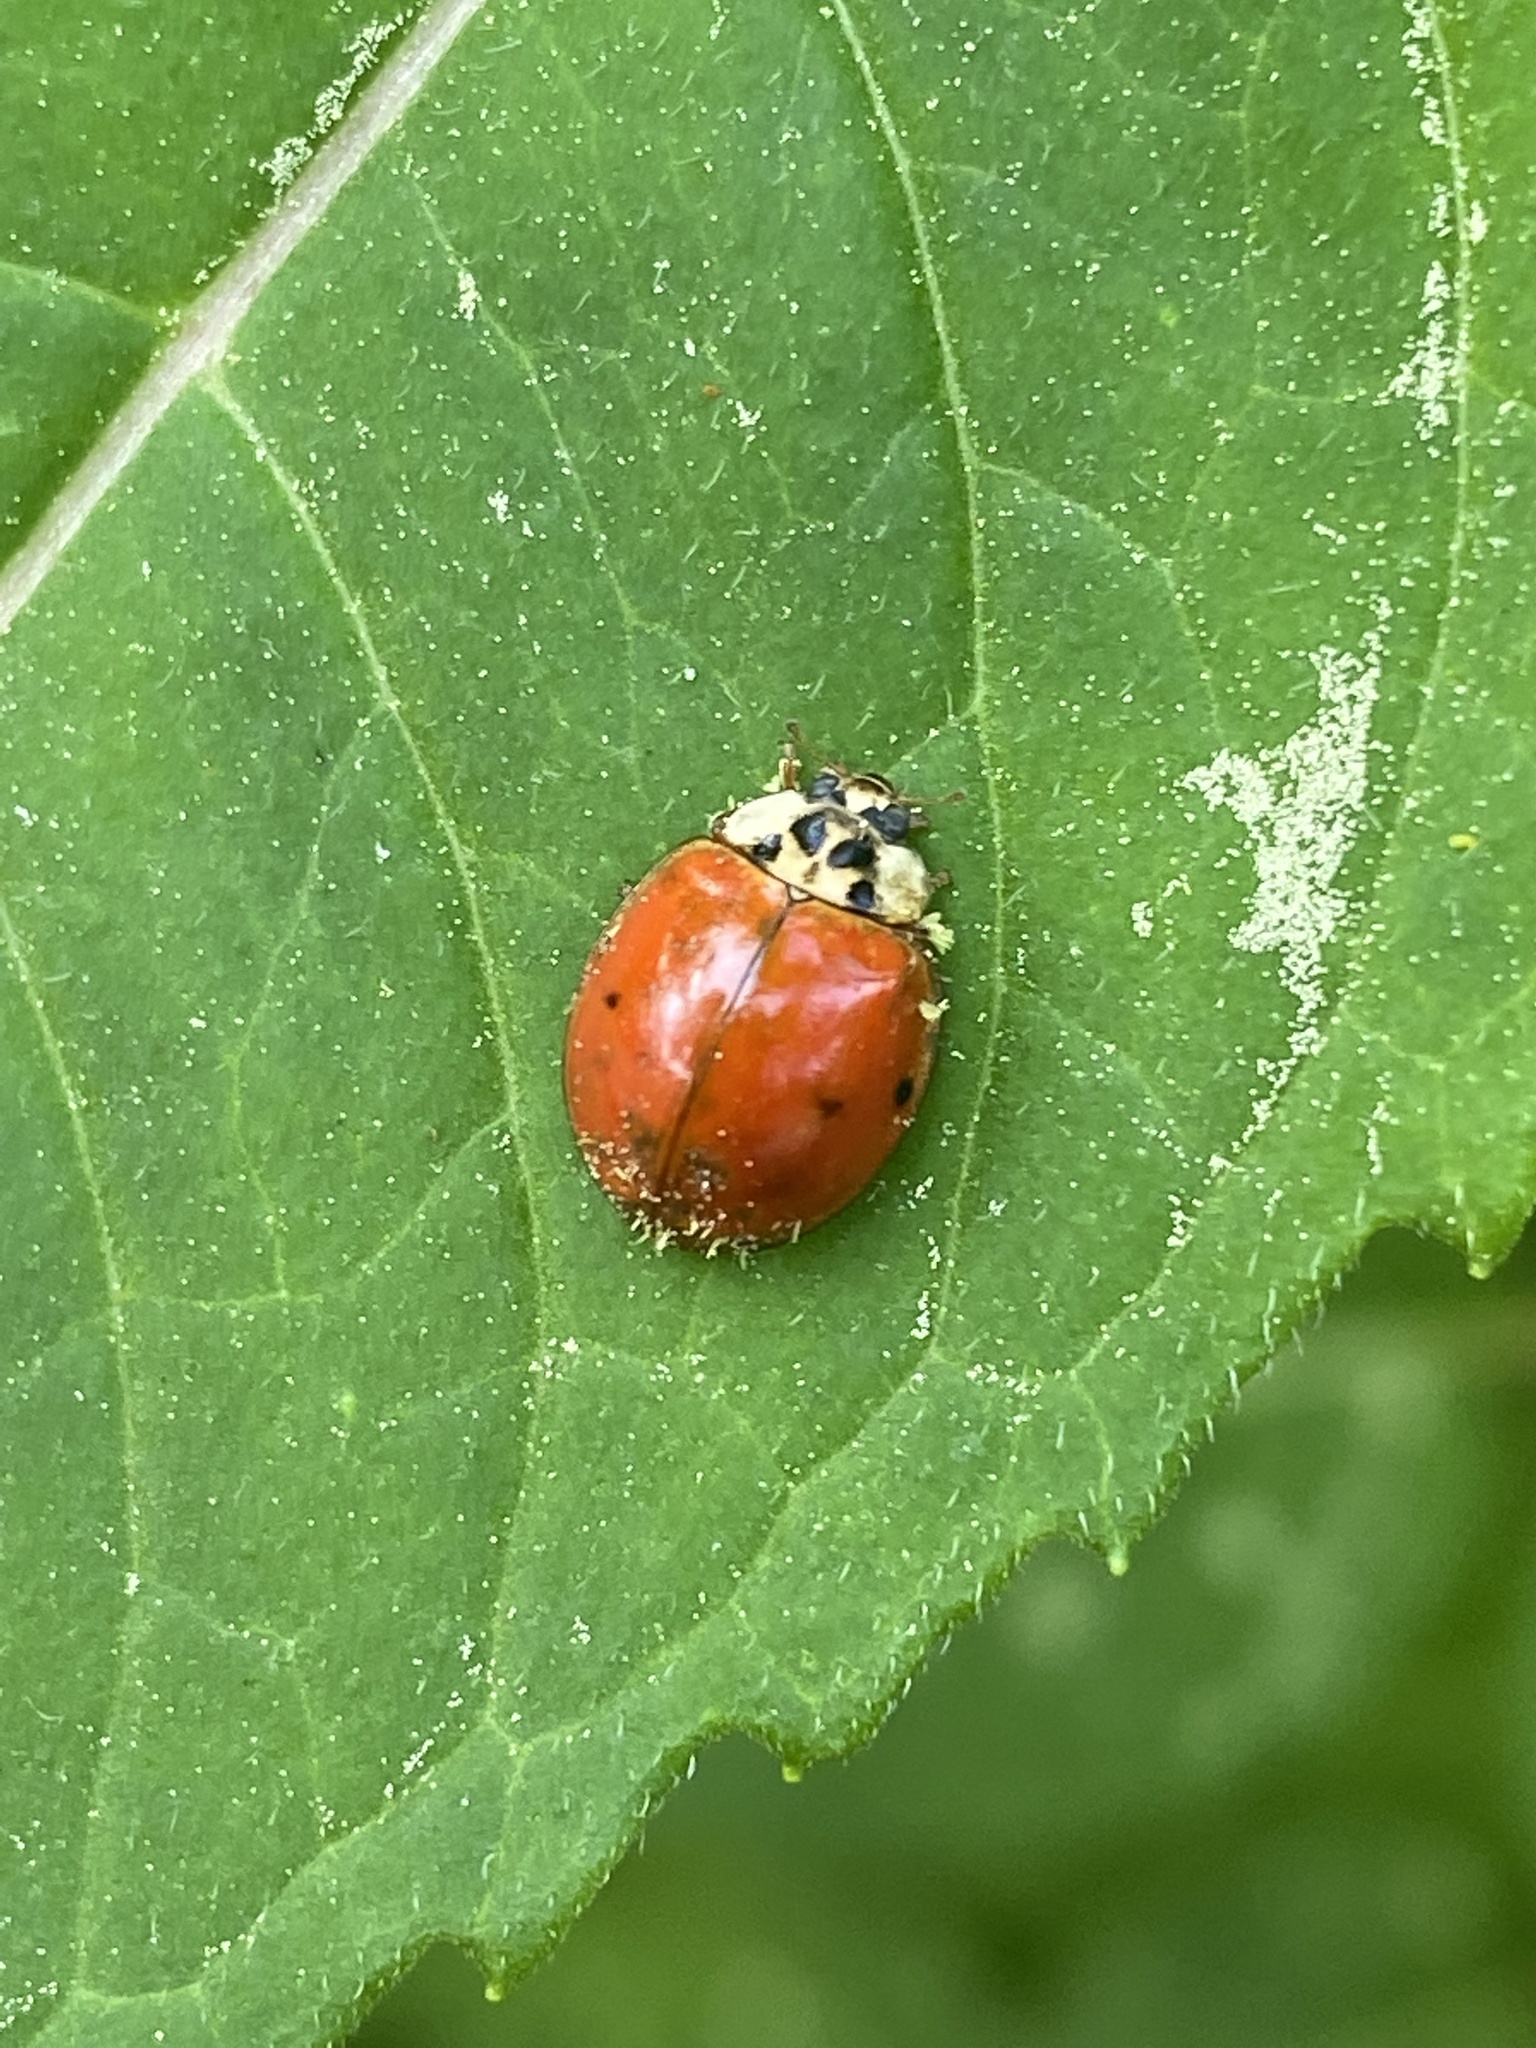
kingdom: Animalia
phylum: Arthropoda
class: Insecta
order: Coleoptera
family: Coccinellidae
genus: Harmonia
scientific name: Harmonia axyridis
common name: Harlequin ladybird
